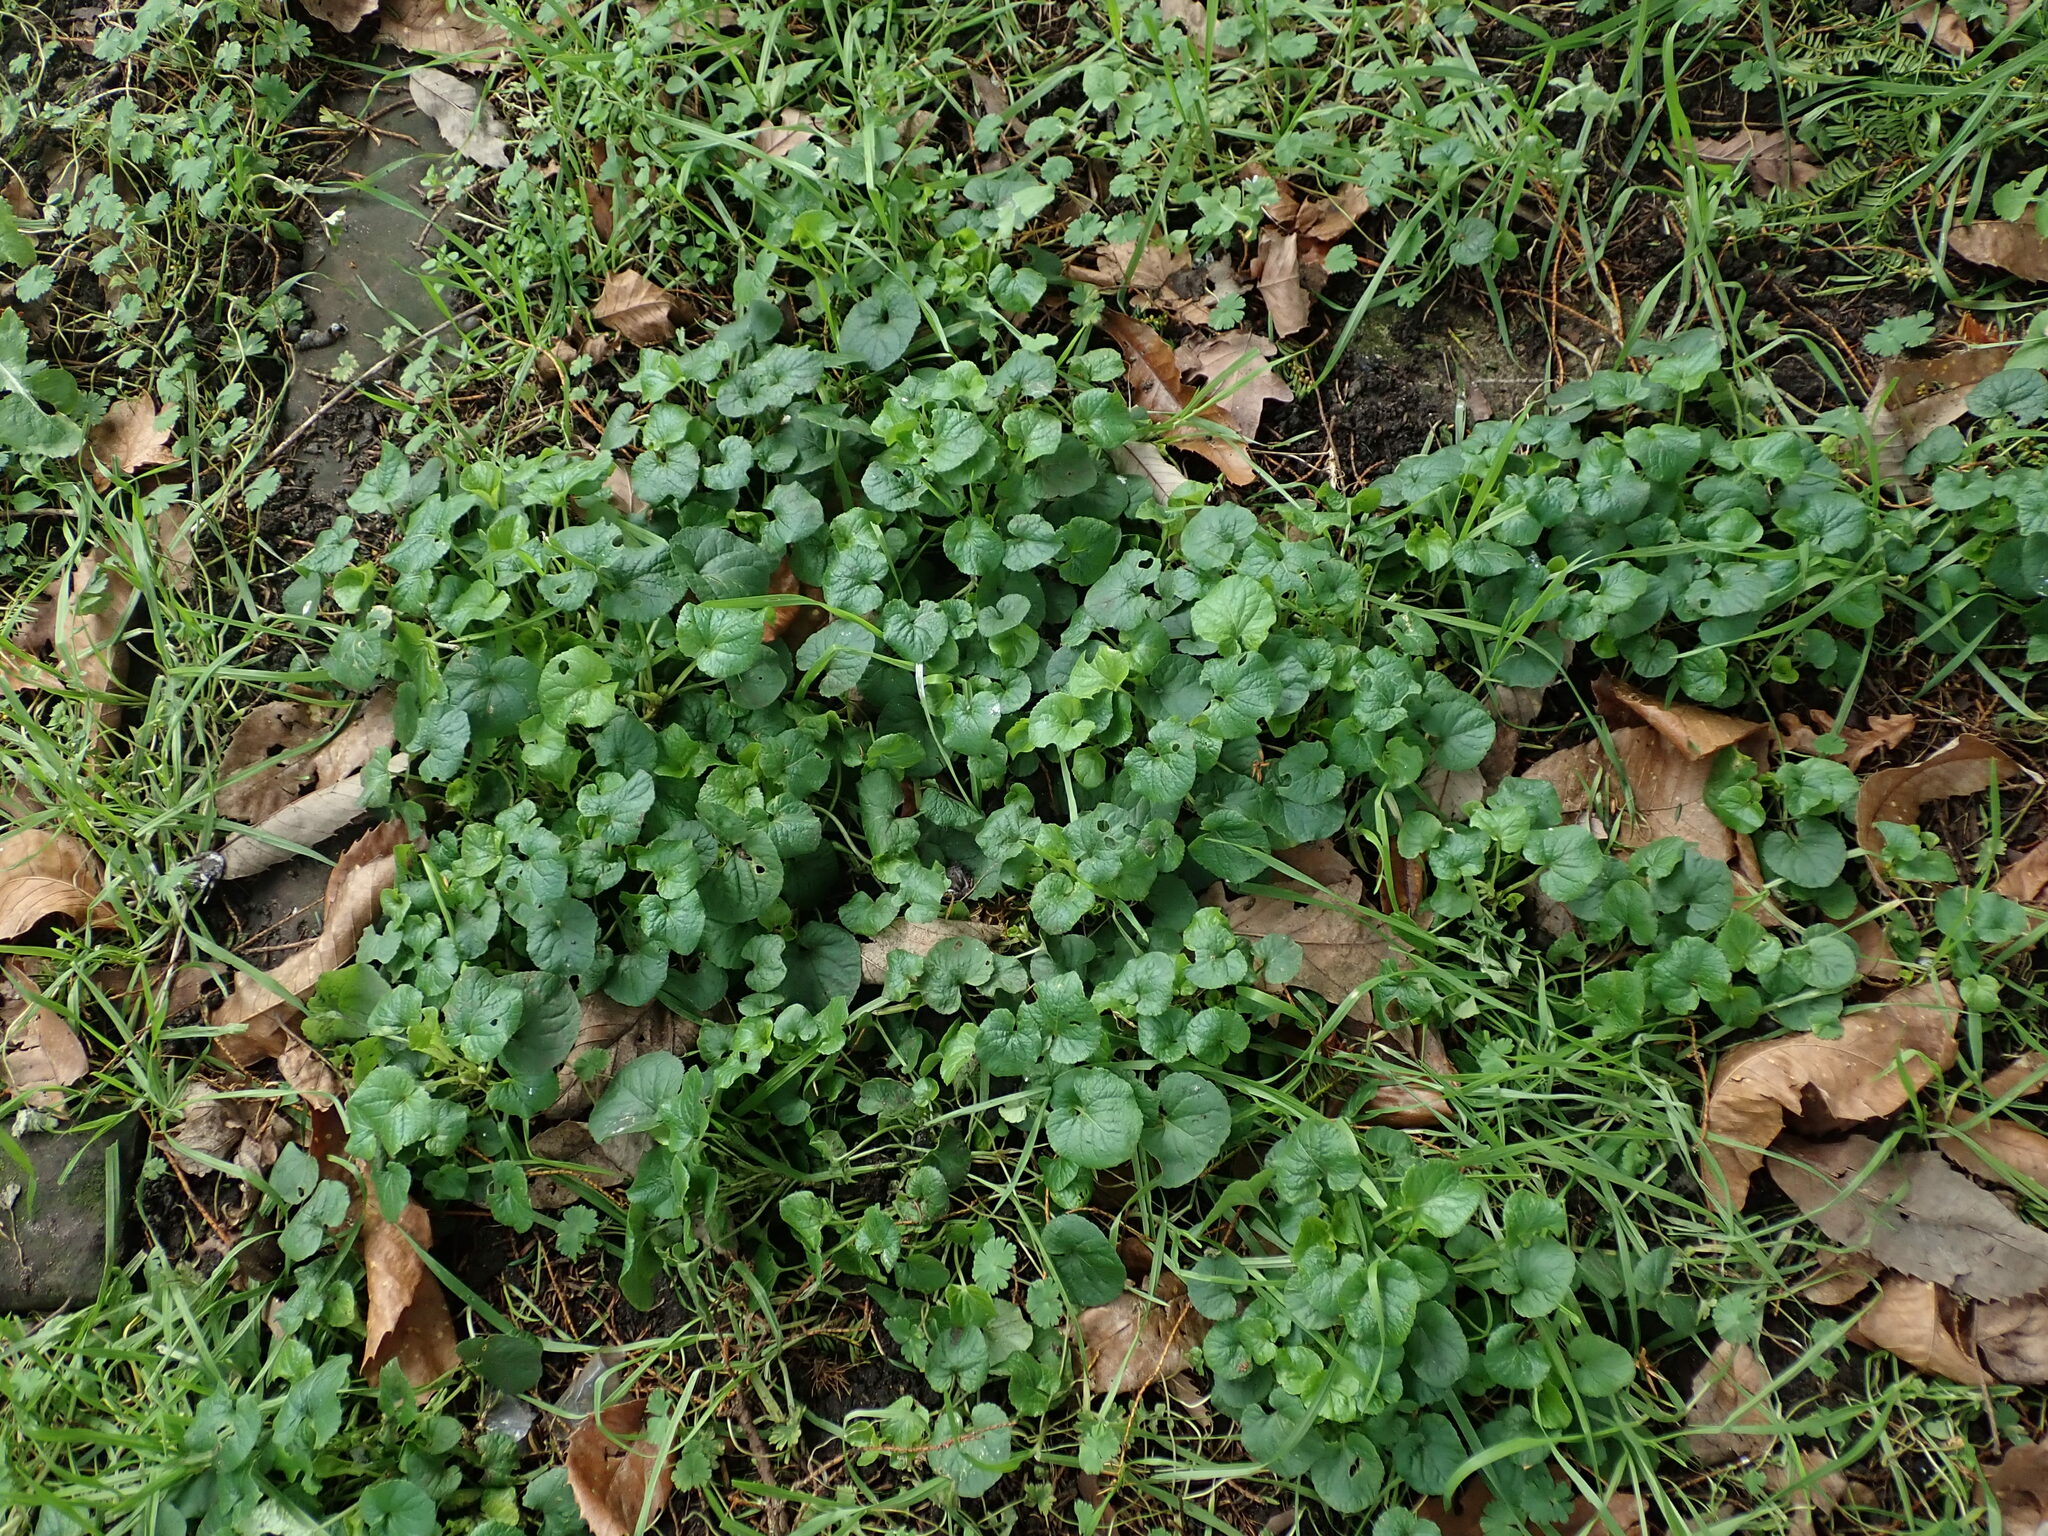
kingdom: Plantae
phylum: Tracheophyta
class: Magnoliopsida
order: Malpighiales
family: Violaceae
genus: Viola
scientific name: Viola odorata
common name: Sweet violet
